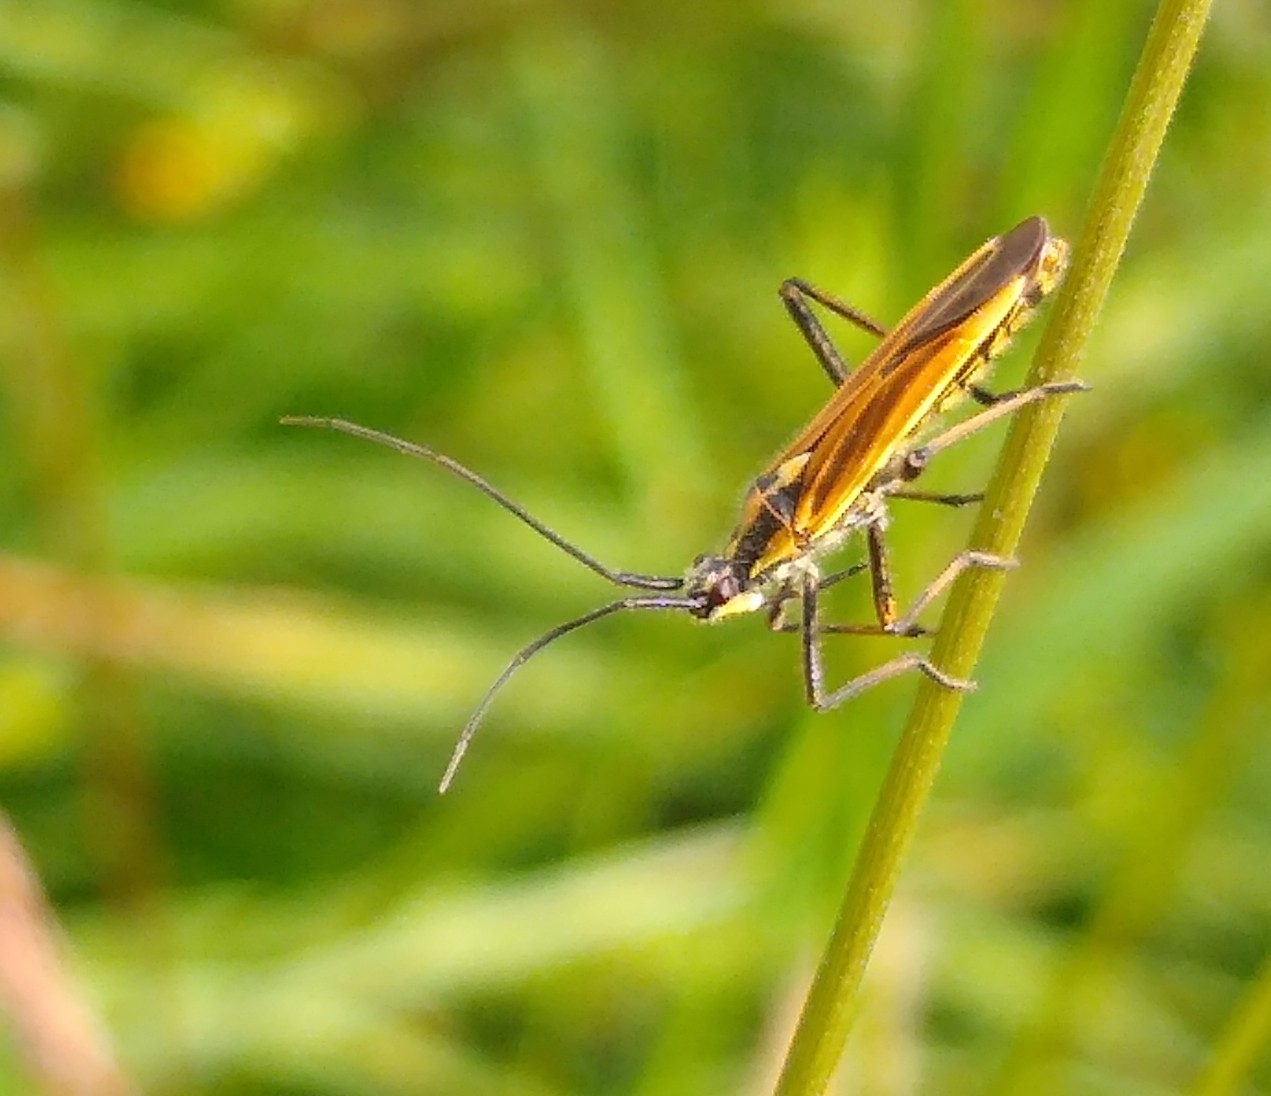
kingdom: Animalia
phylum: Arthropoda
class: Insecta
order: Hemiptera
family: Miridae
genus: Leptopterna
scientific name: Leptopterna dolabrata
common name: Meadow plant bug
